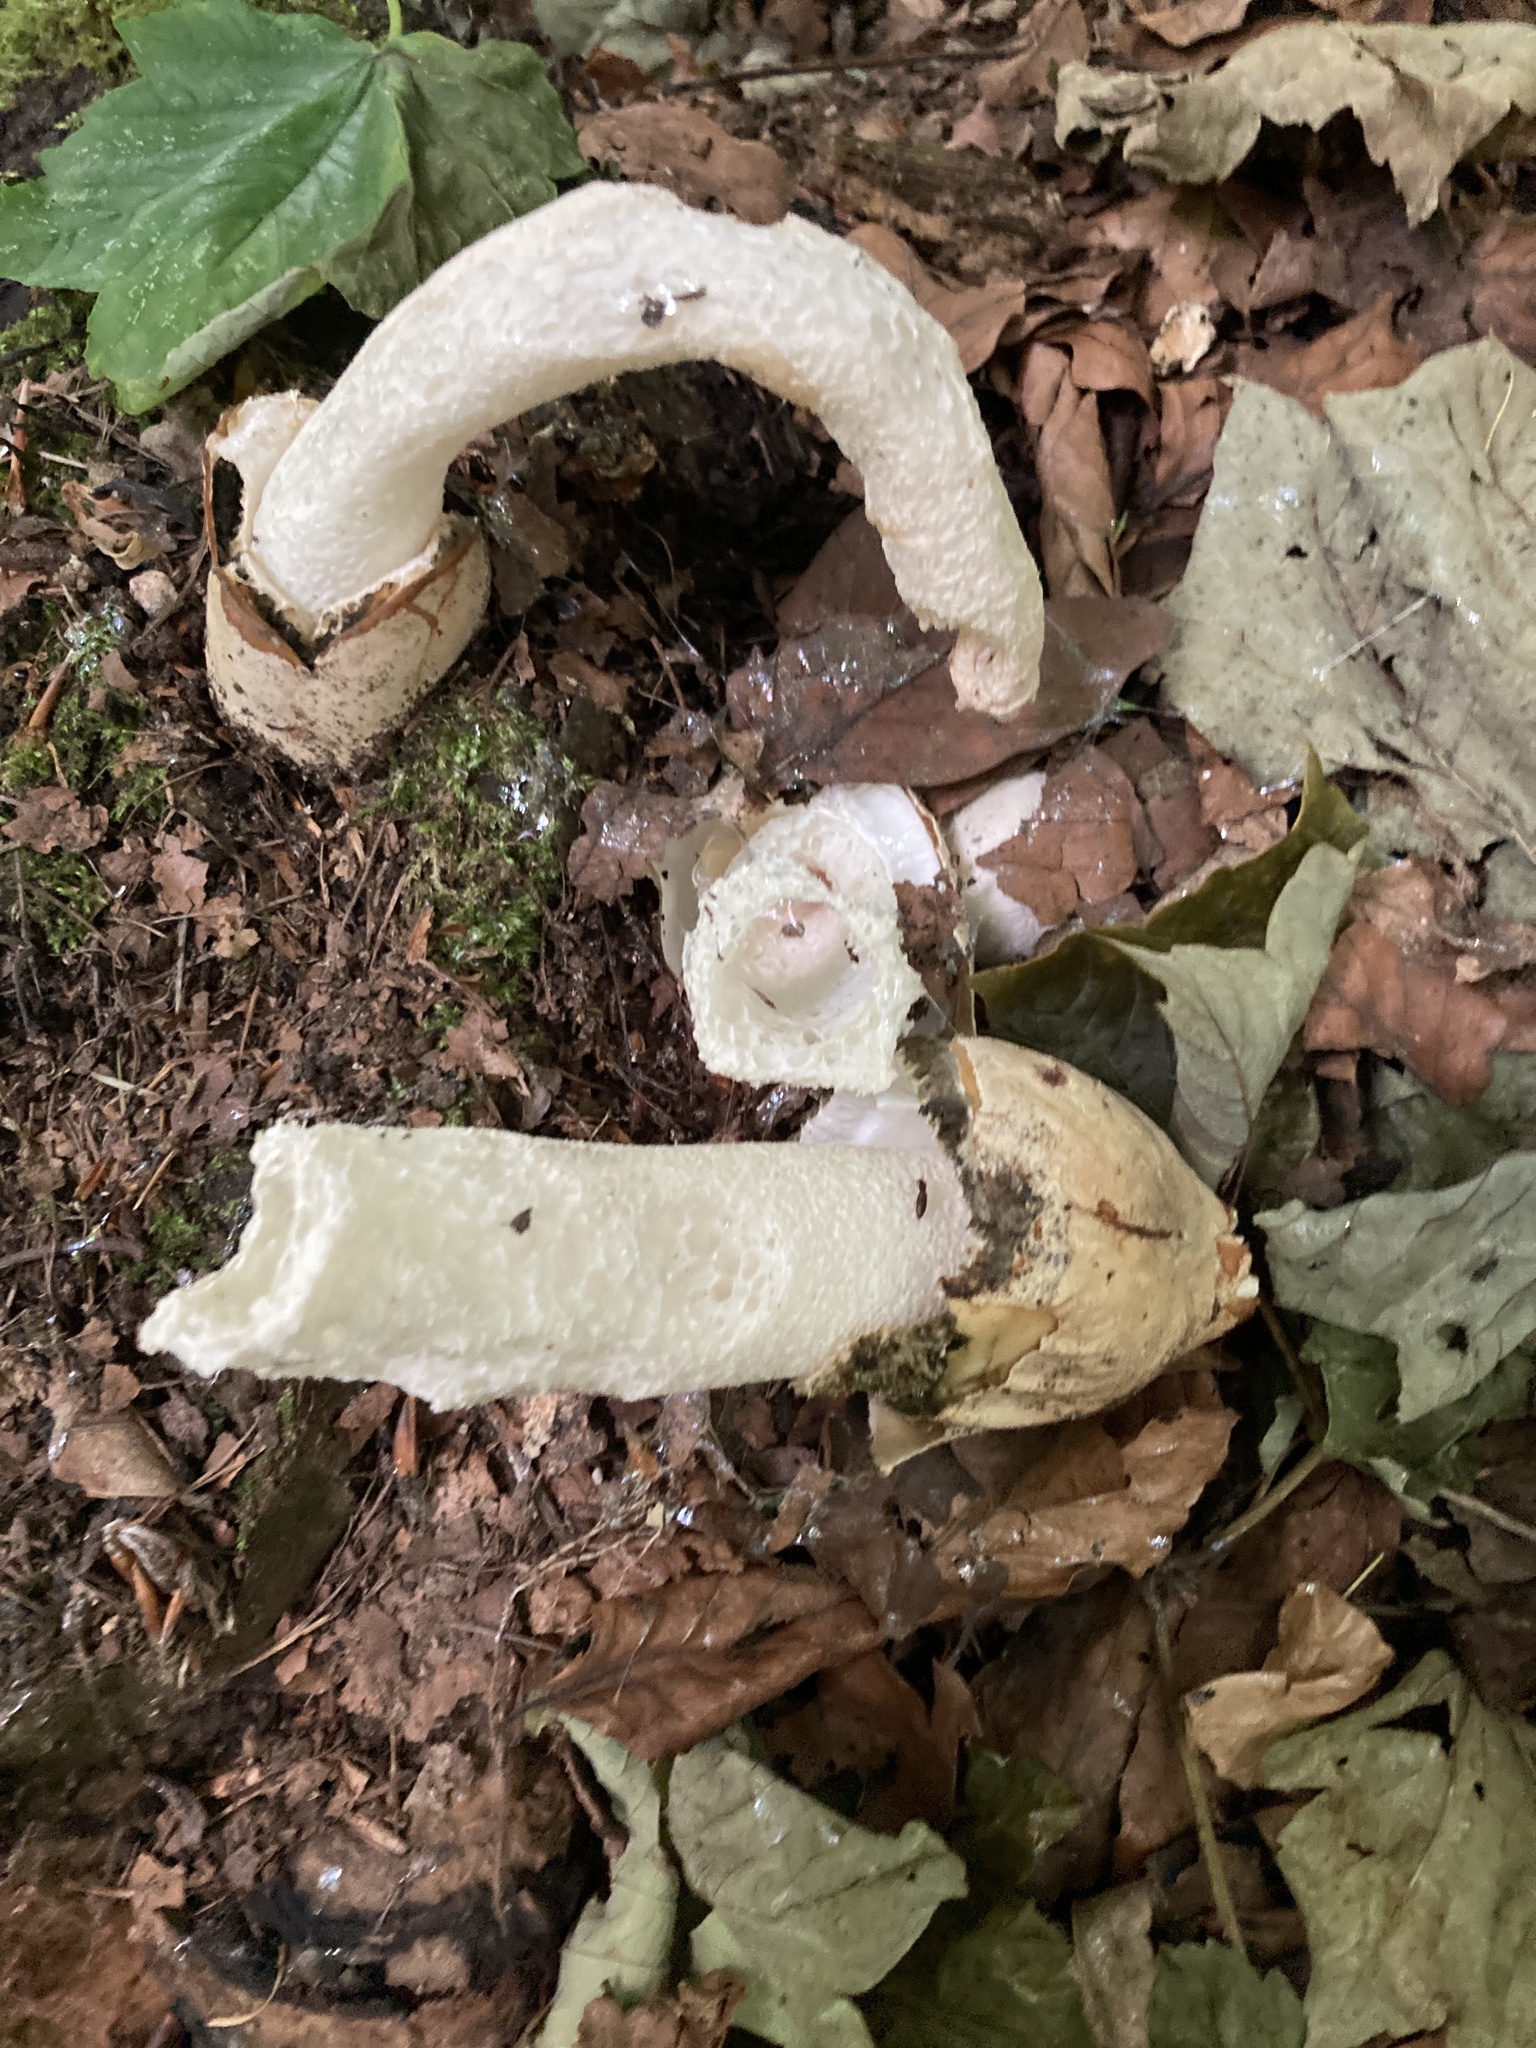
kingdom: Fungi
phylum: Basidiomycota
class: Agaricomycetes
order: Phallales
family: Phallaceae
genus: Phallus
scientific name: Phallus impudicus
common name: Common stinkhorn
